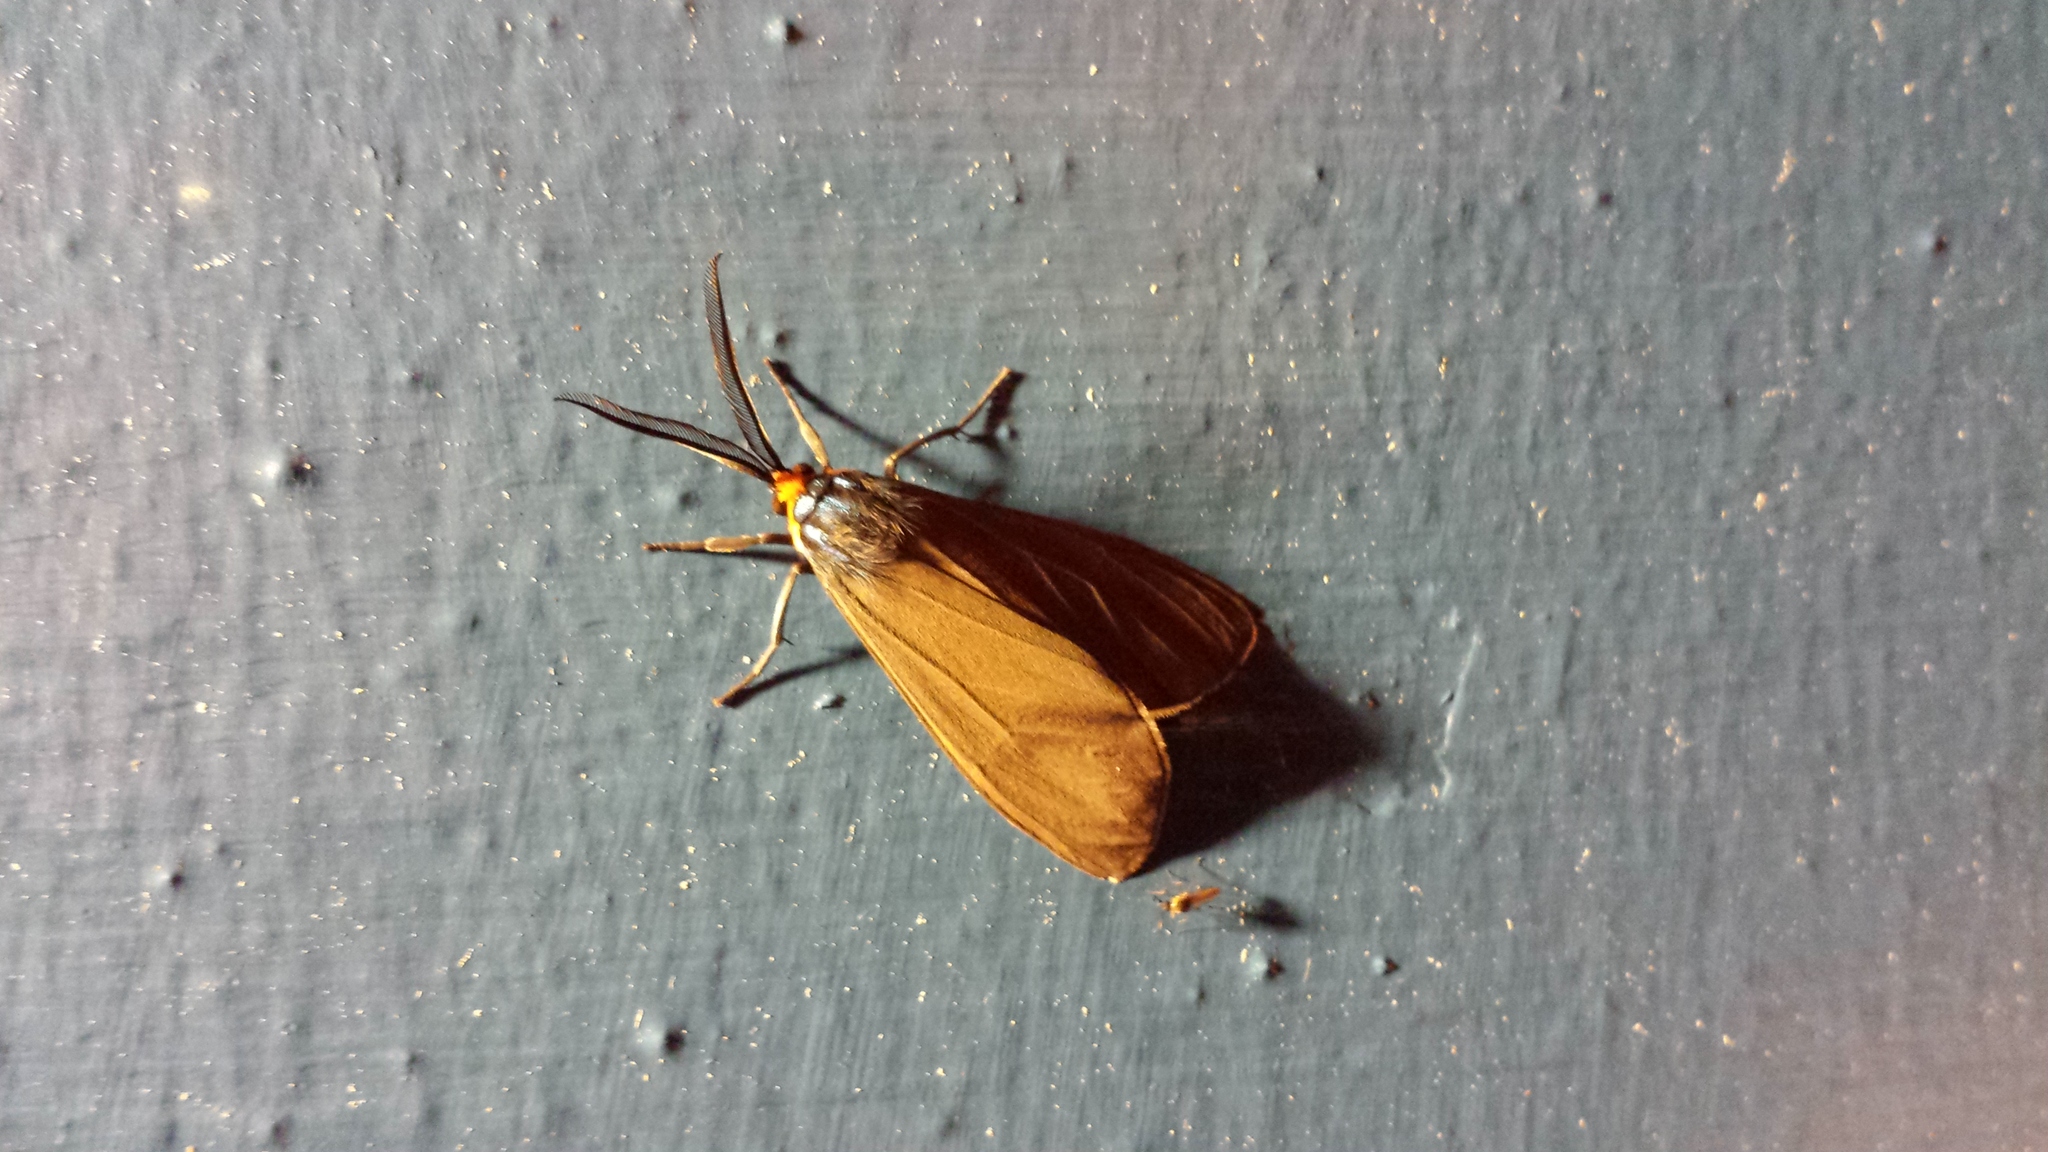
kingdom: Animalia
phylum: Arthropoda
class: Insecta
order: Lepidoptera
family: Erebidae
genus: Ctenucha
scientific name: Ctenucha virginica
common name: Virginia ctenucha moth
